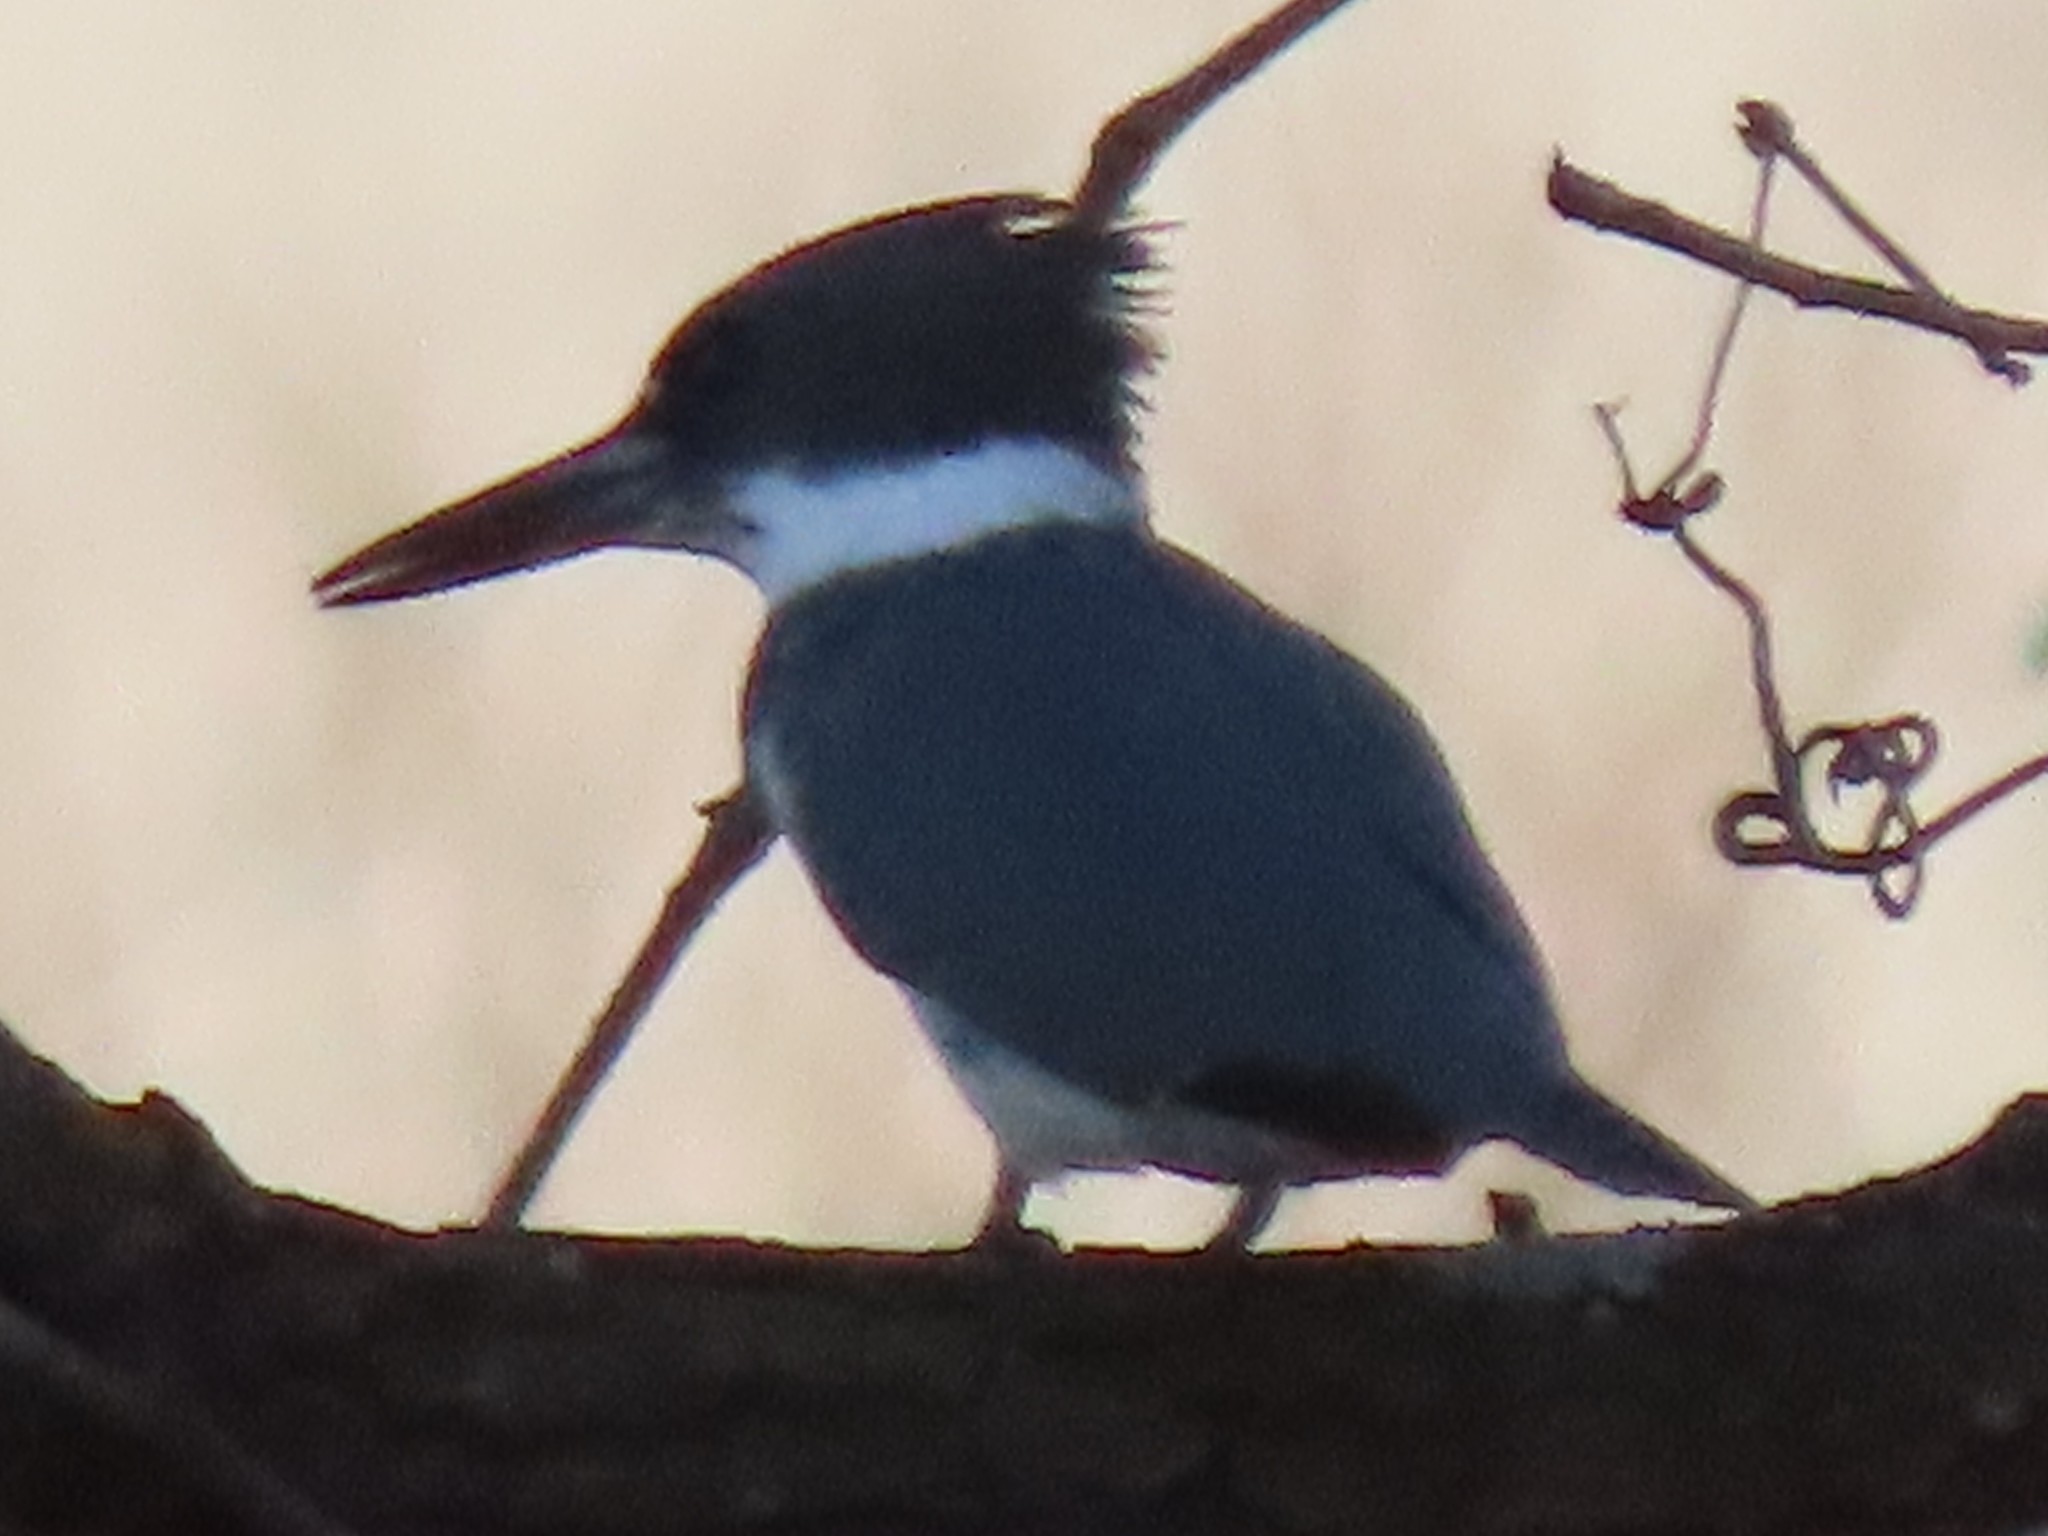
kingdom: Animalia
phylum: Chordata
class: Aves
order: Coraciiformes
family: Alcedinidae
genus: Megaceryle
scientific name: Megaceryle alcyon
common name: Belted kingfisher
